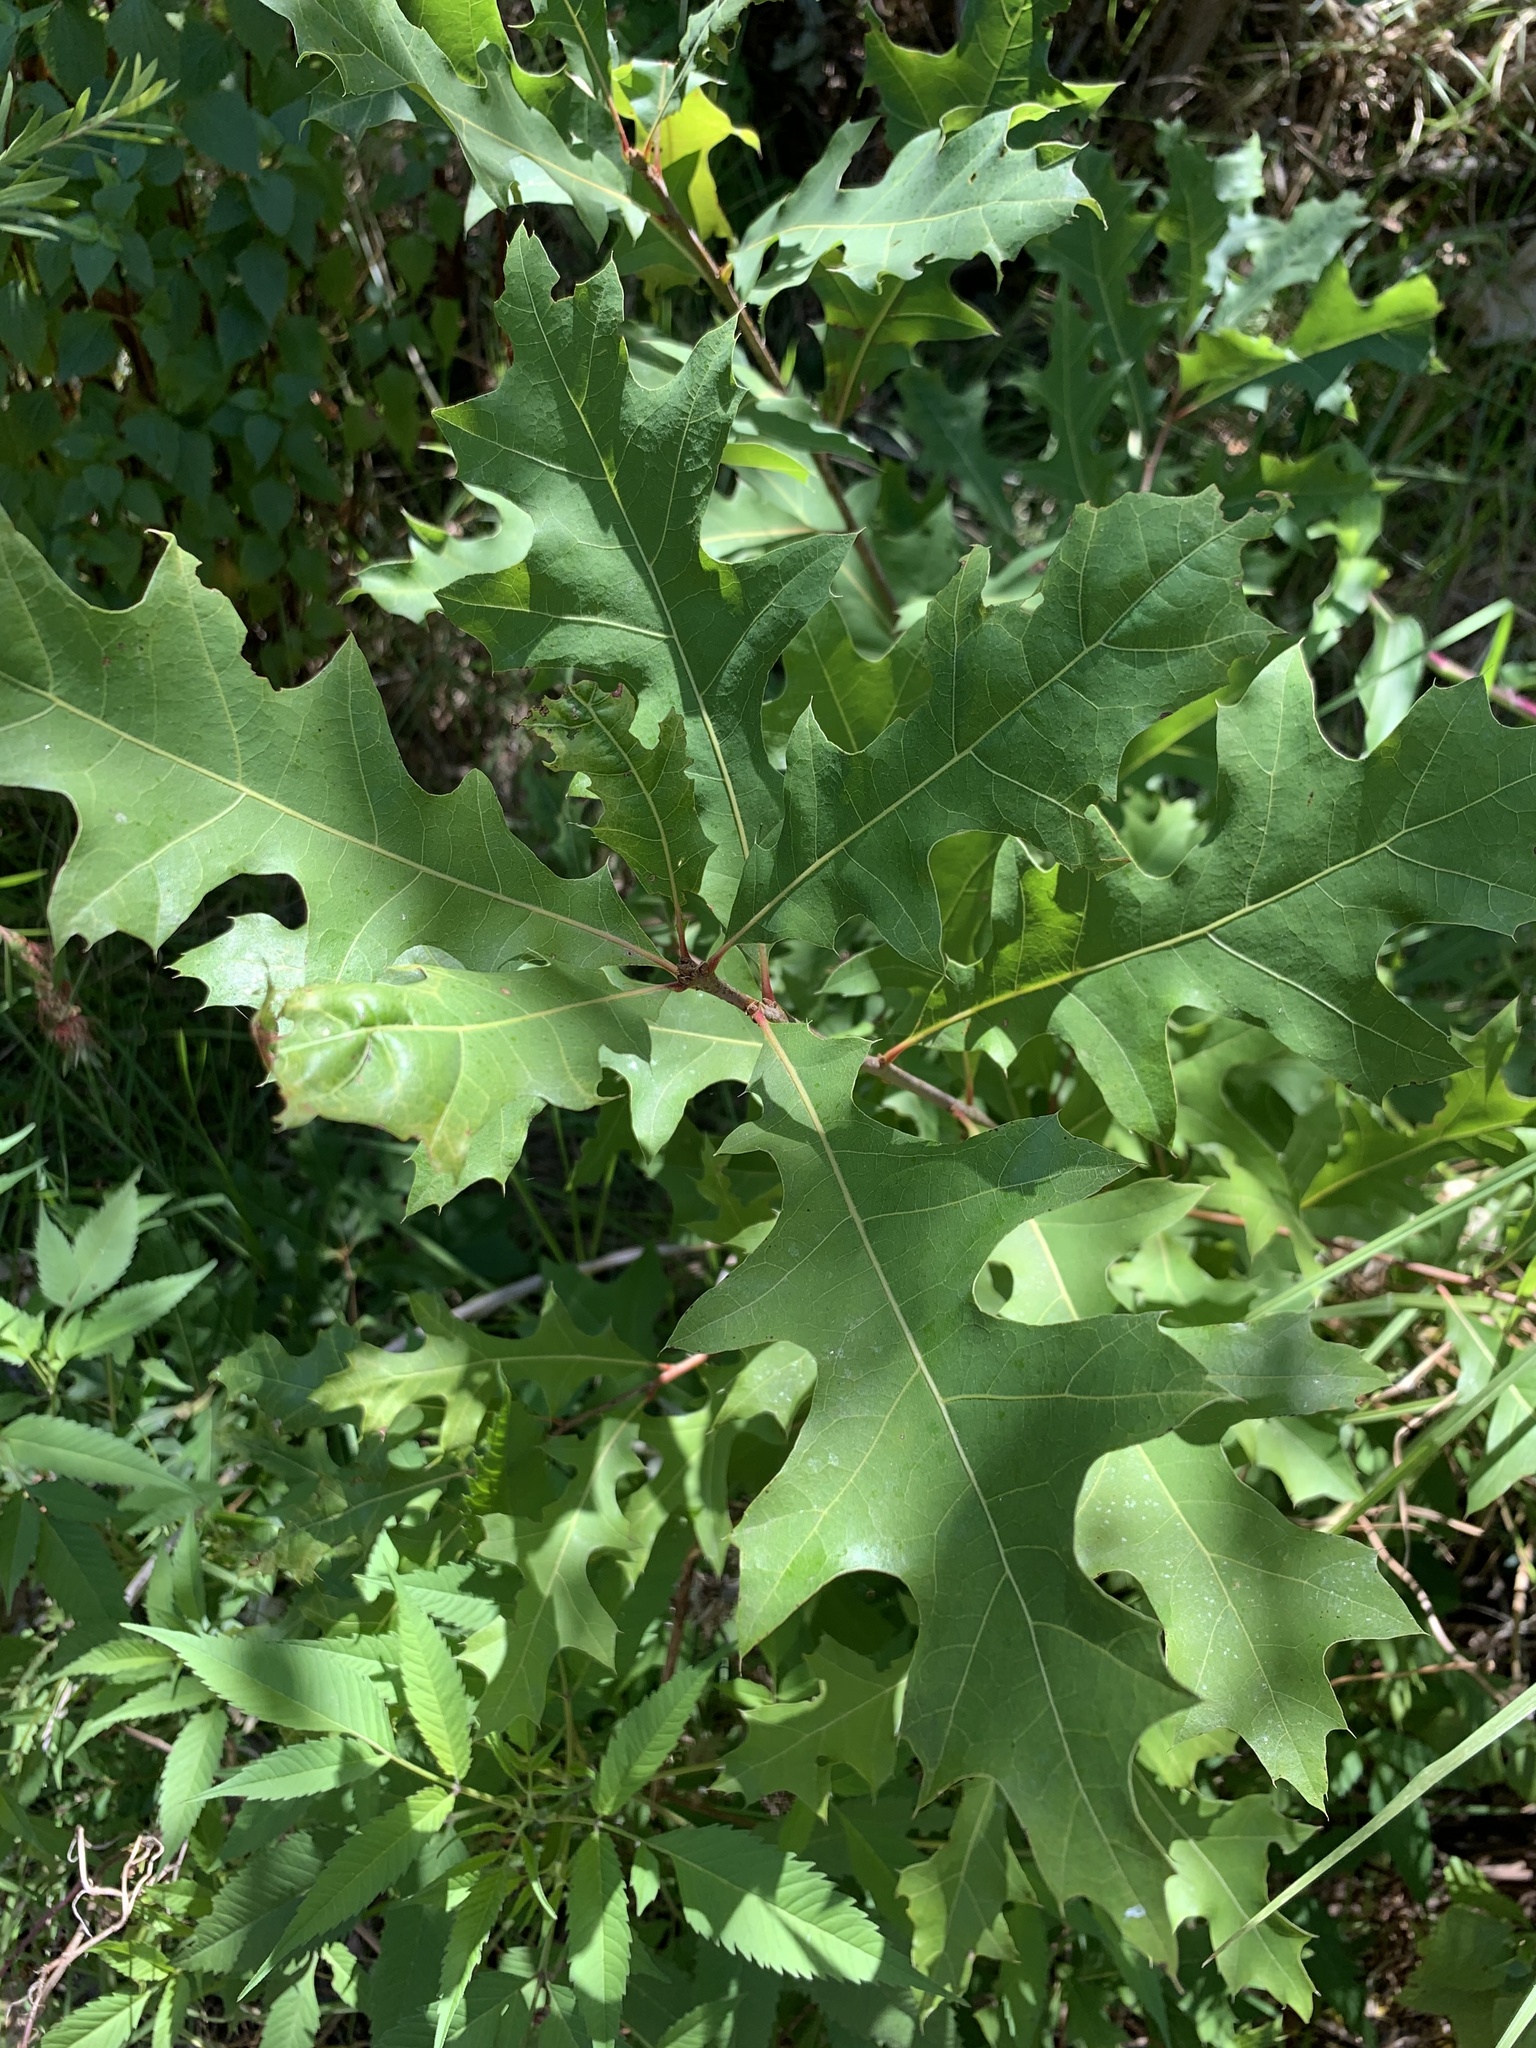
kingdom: Plantae
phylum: Tracheophyta
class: Magnoliopsida
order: Fagales
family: Fagaceae
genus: Quercus
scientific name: Quercus palustris
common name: Pin oak
